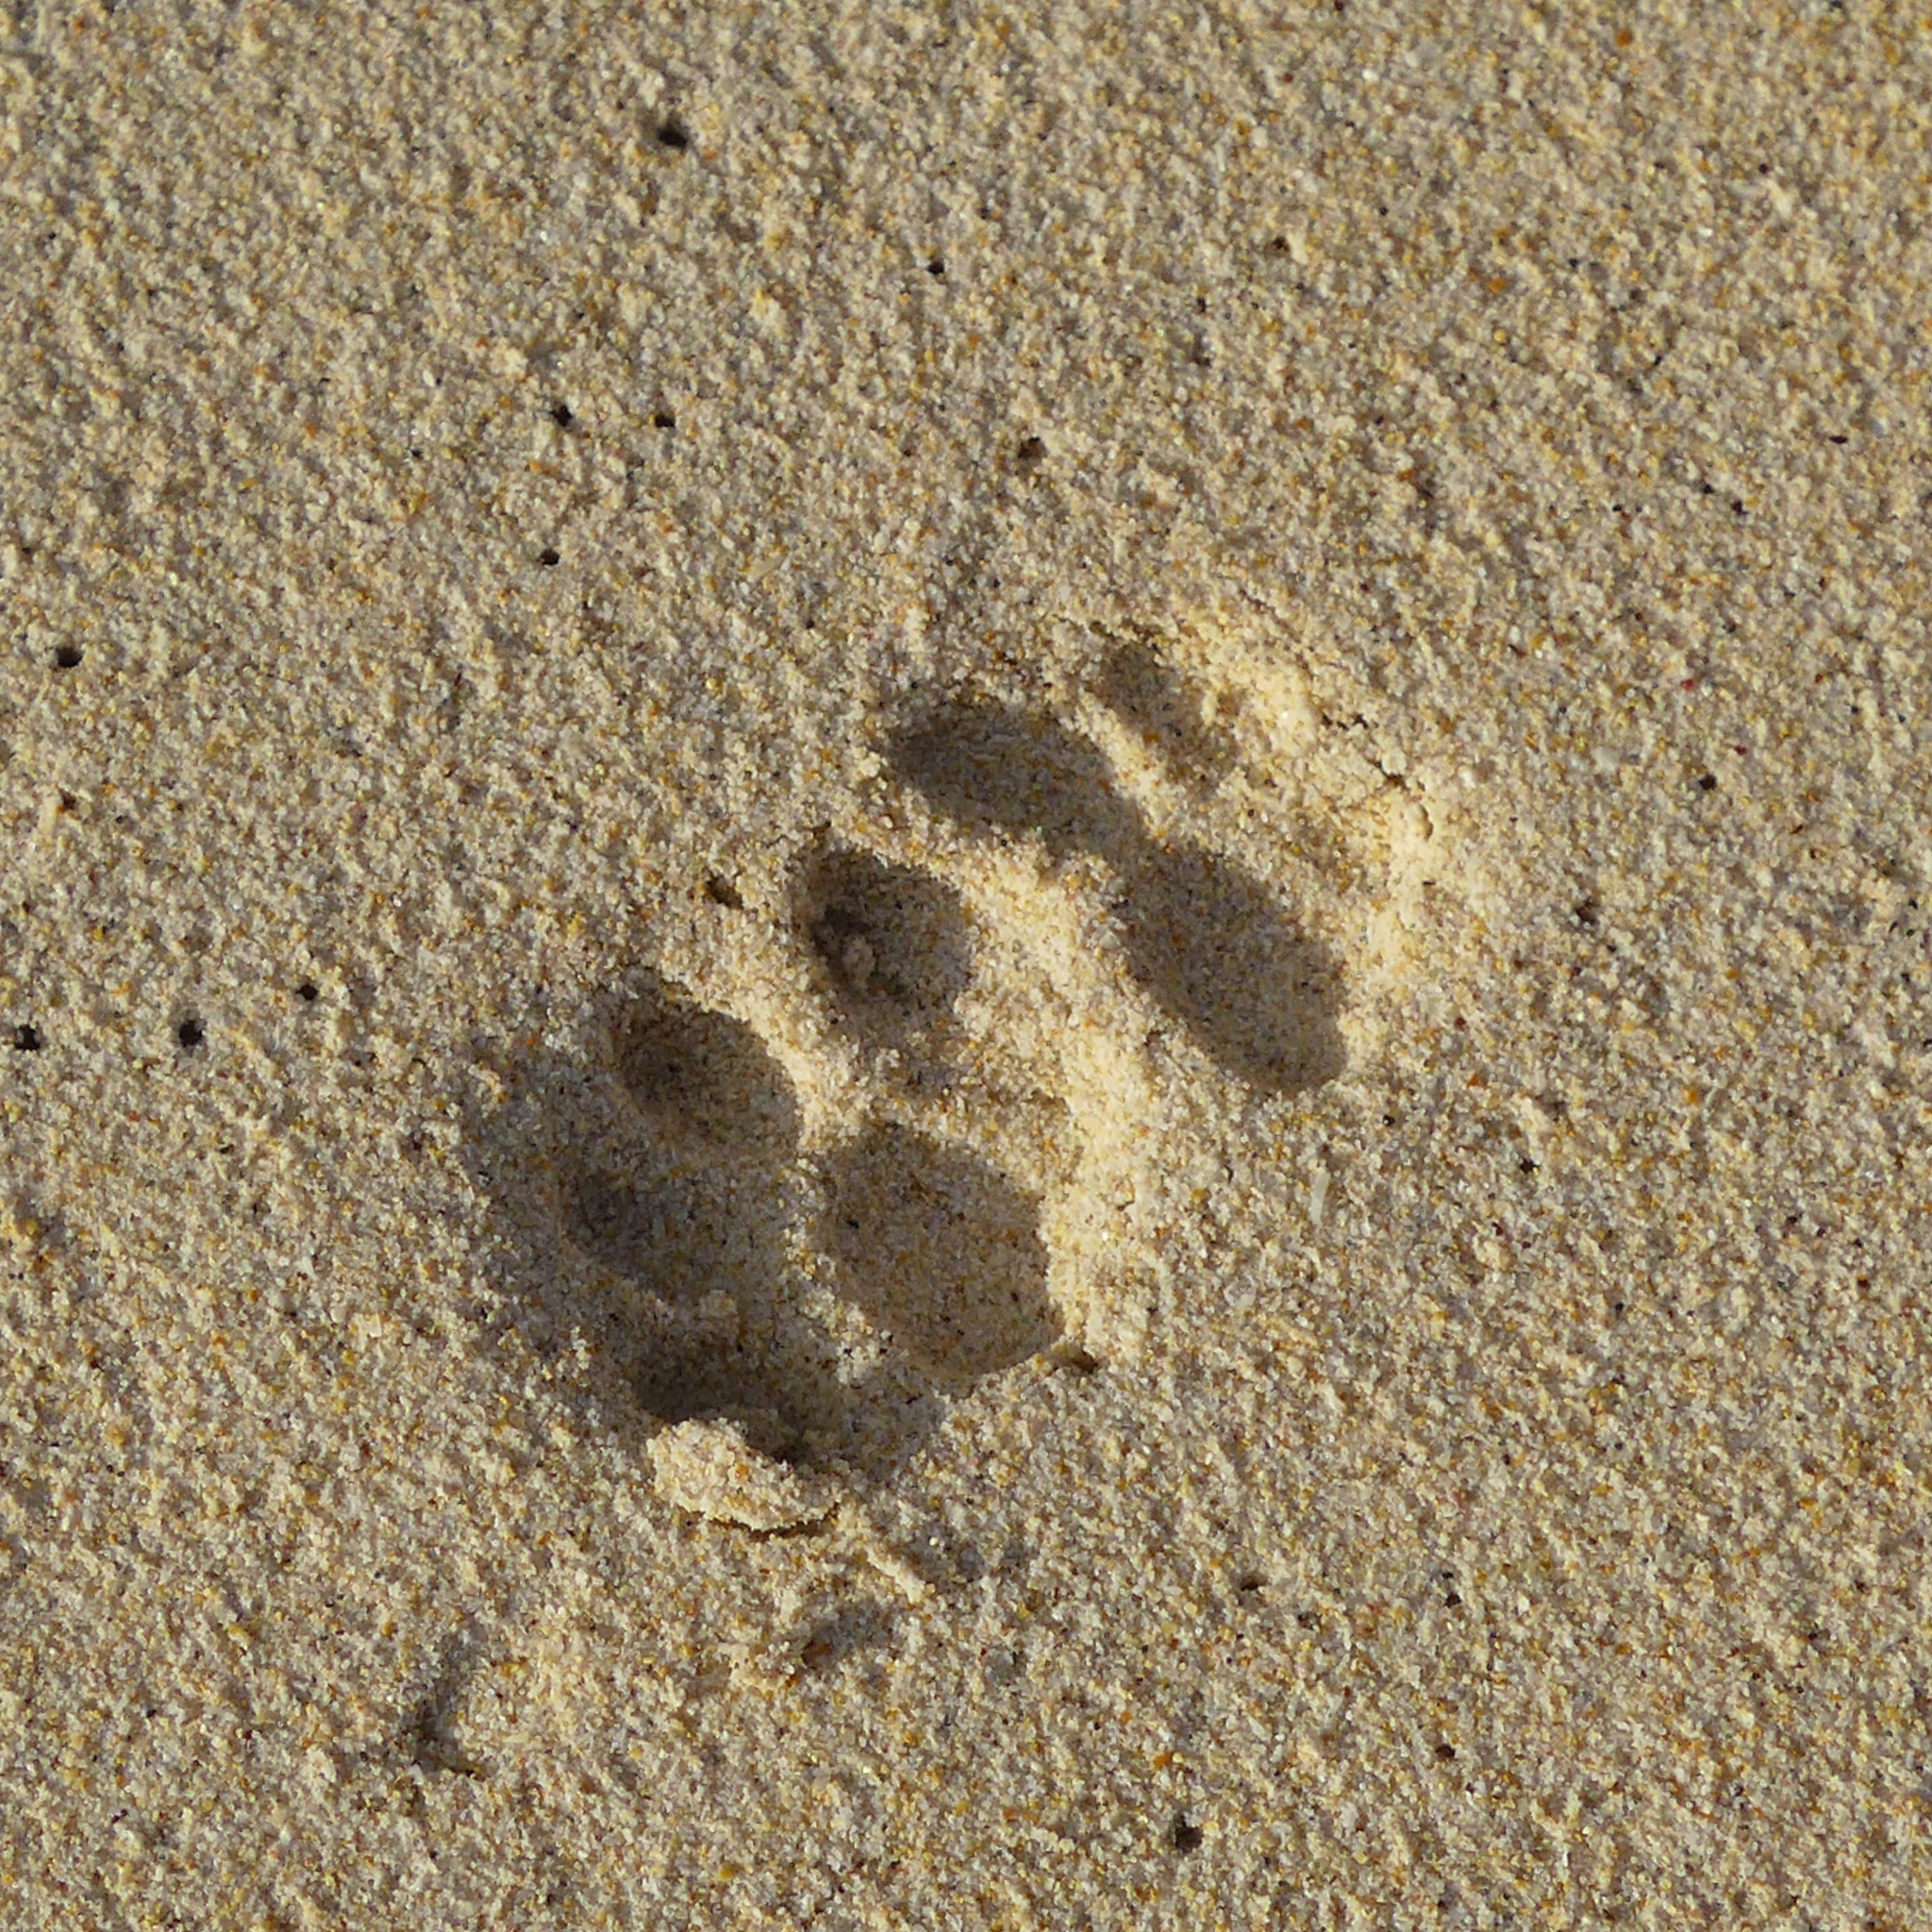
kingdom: Animalia
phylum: Chordata
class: Mammalia
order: Carnivora
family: Felidae
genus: Felis
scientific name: Felis catus
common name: Domestic cat
